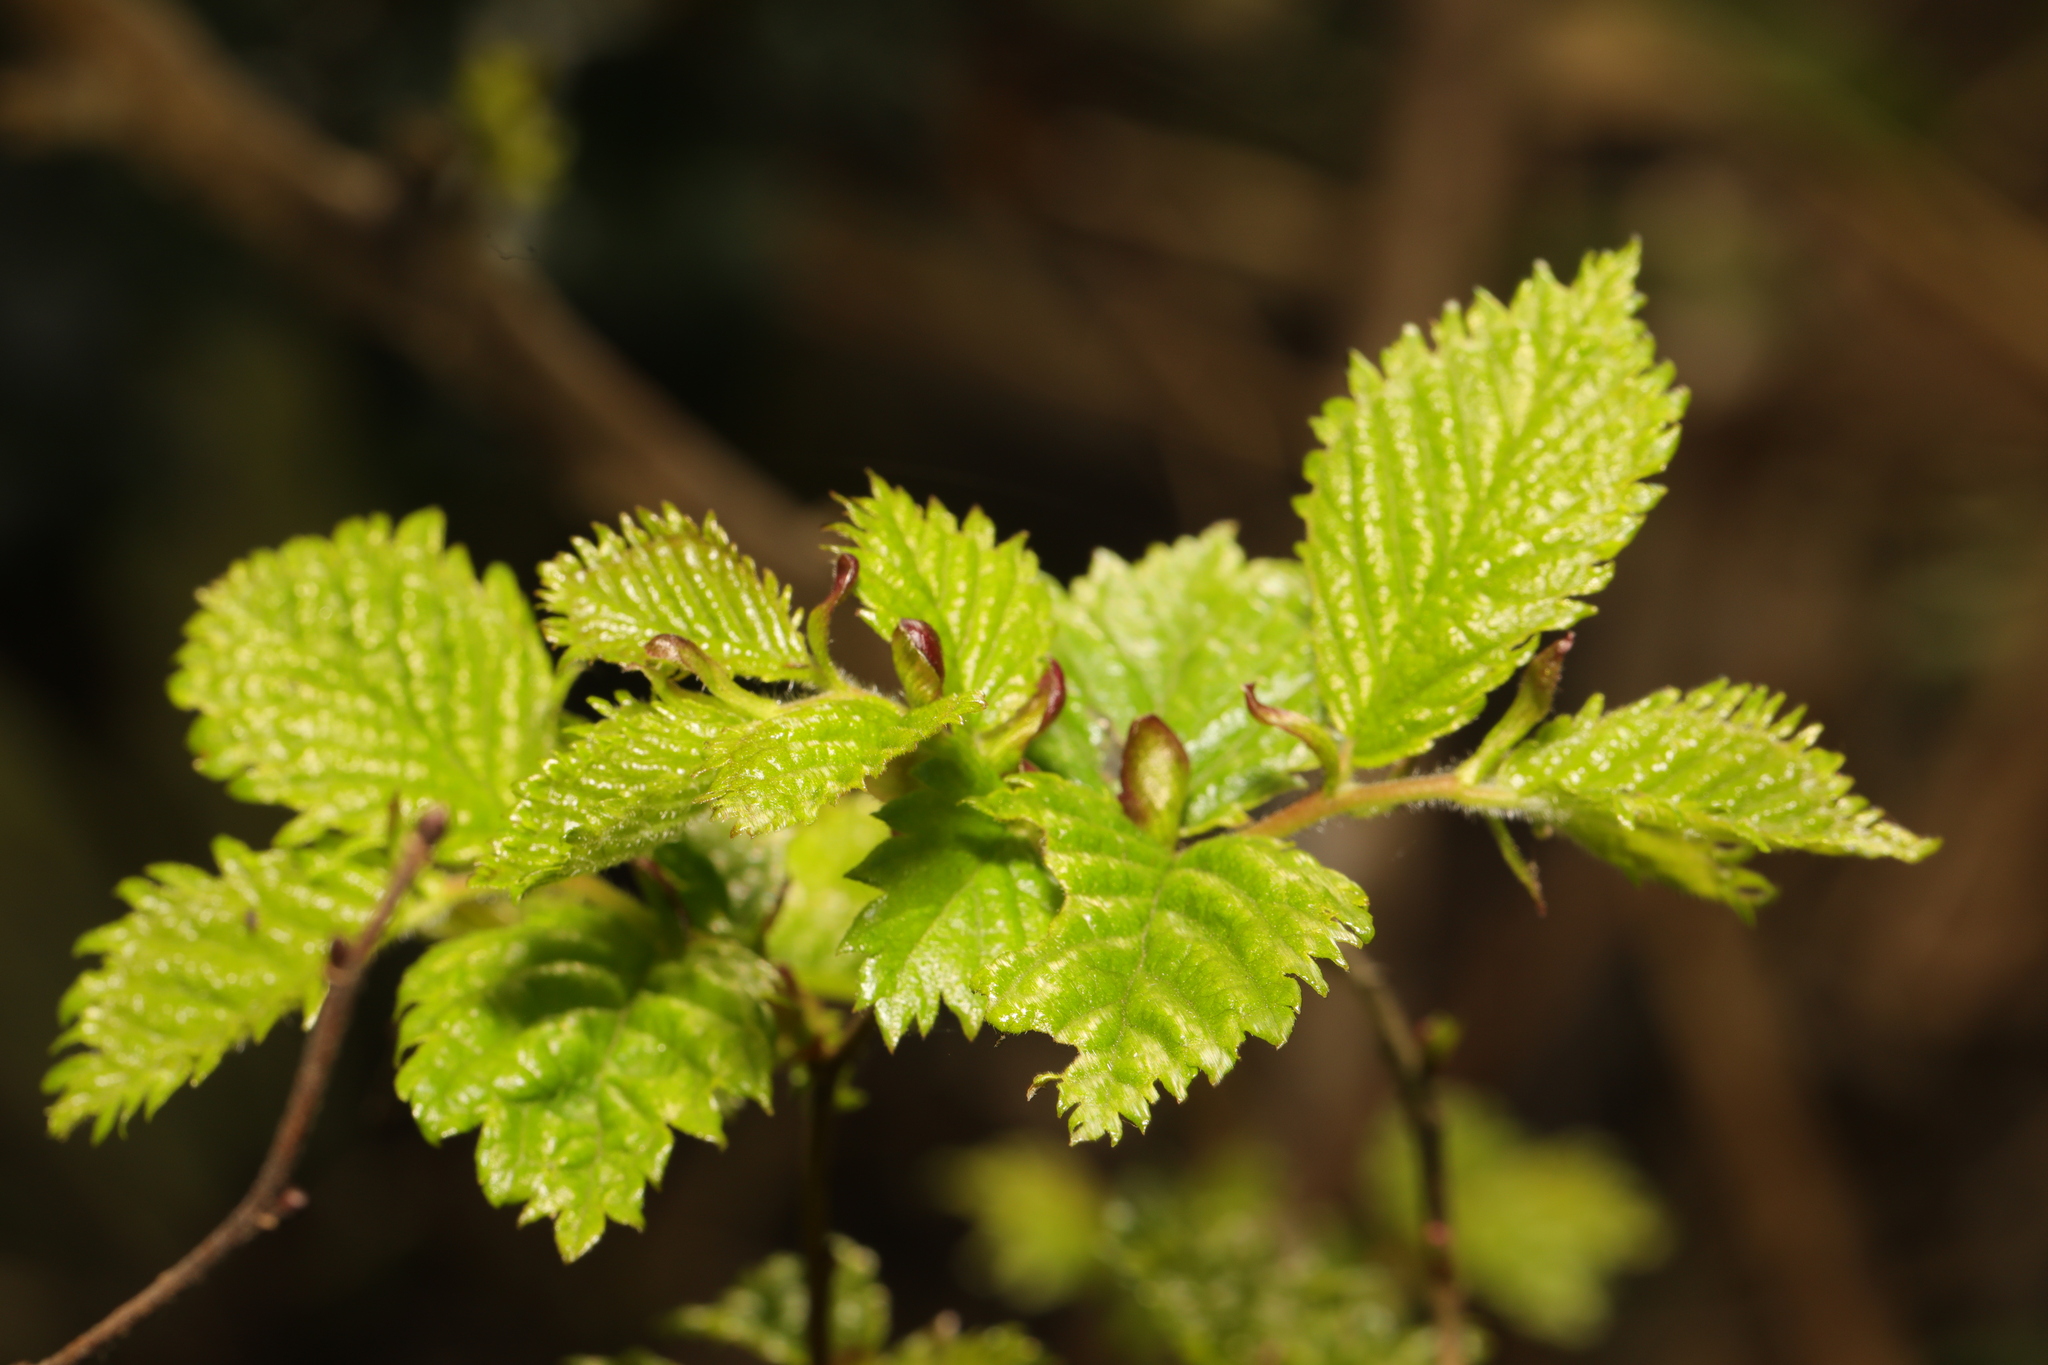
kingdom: Plantae
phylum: Tracheophyta
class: Magnoliopsida
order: Rosales
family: Ulmaceae
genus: Ulmus
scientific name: Ulmus minor
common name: Small-leaved elm
